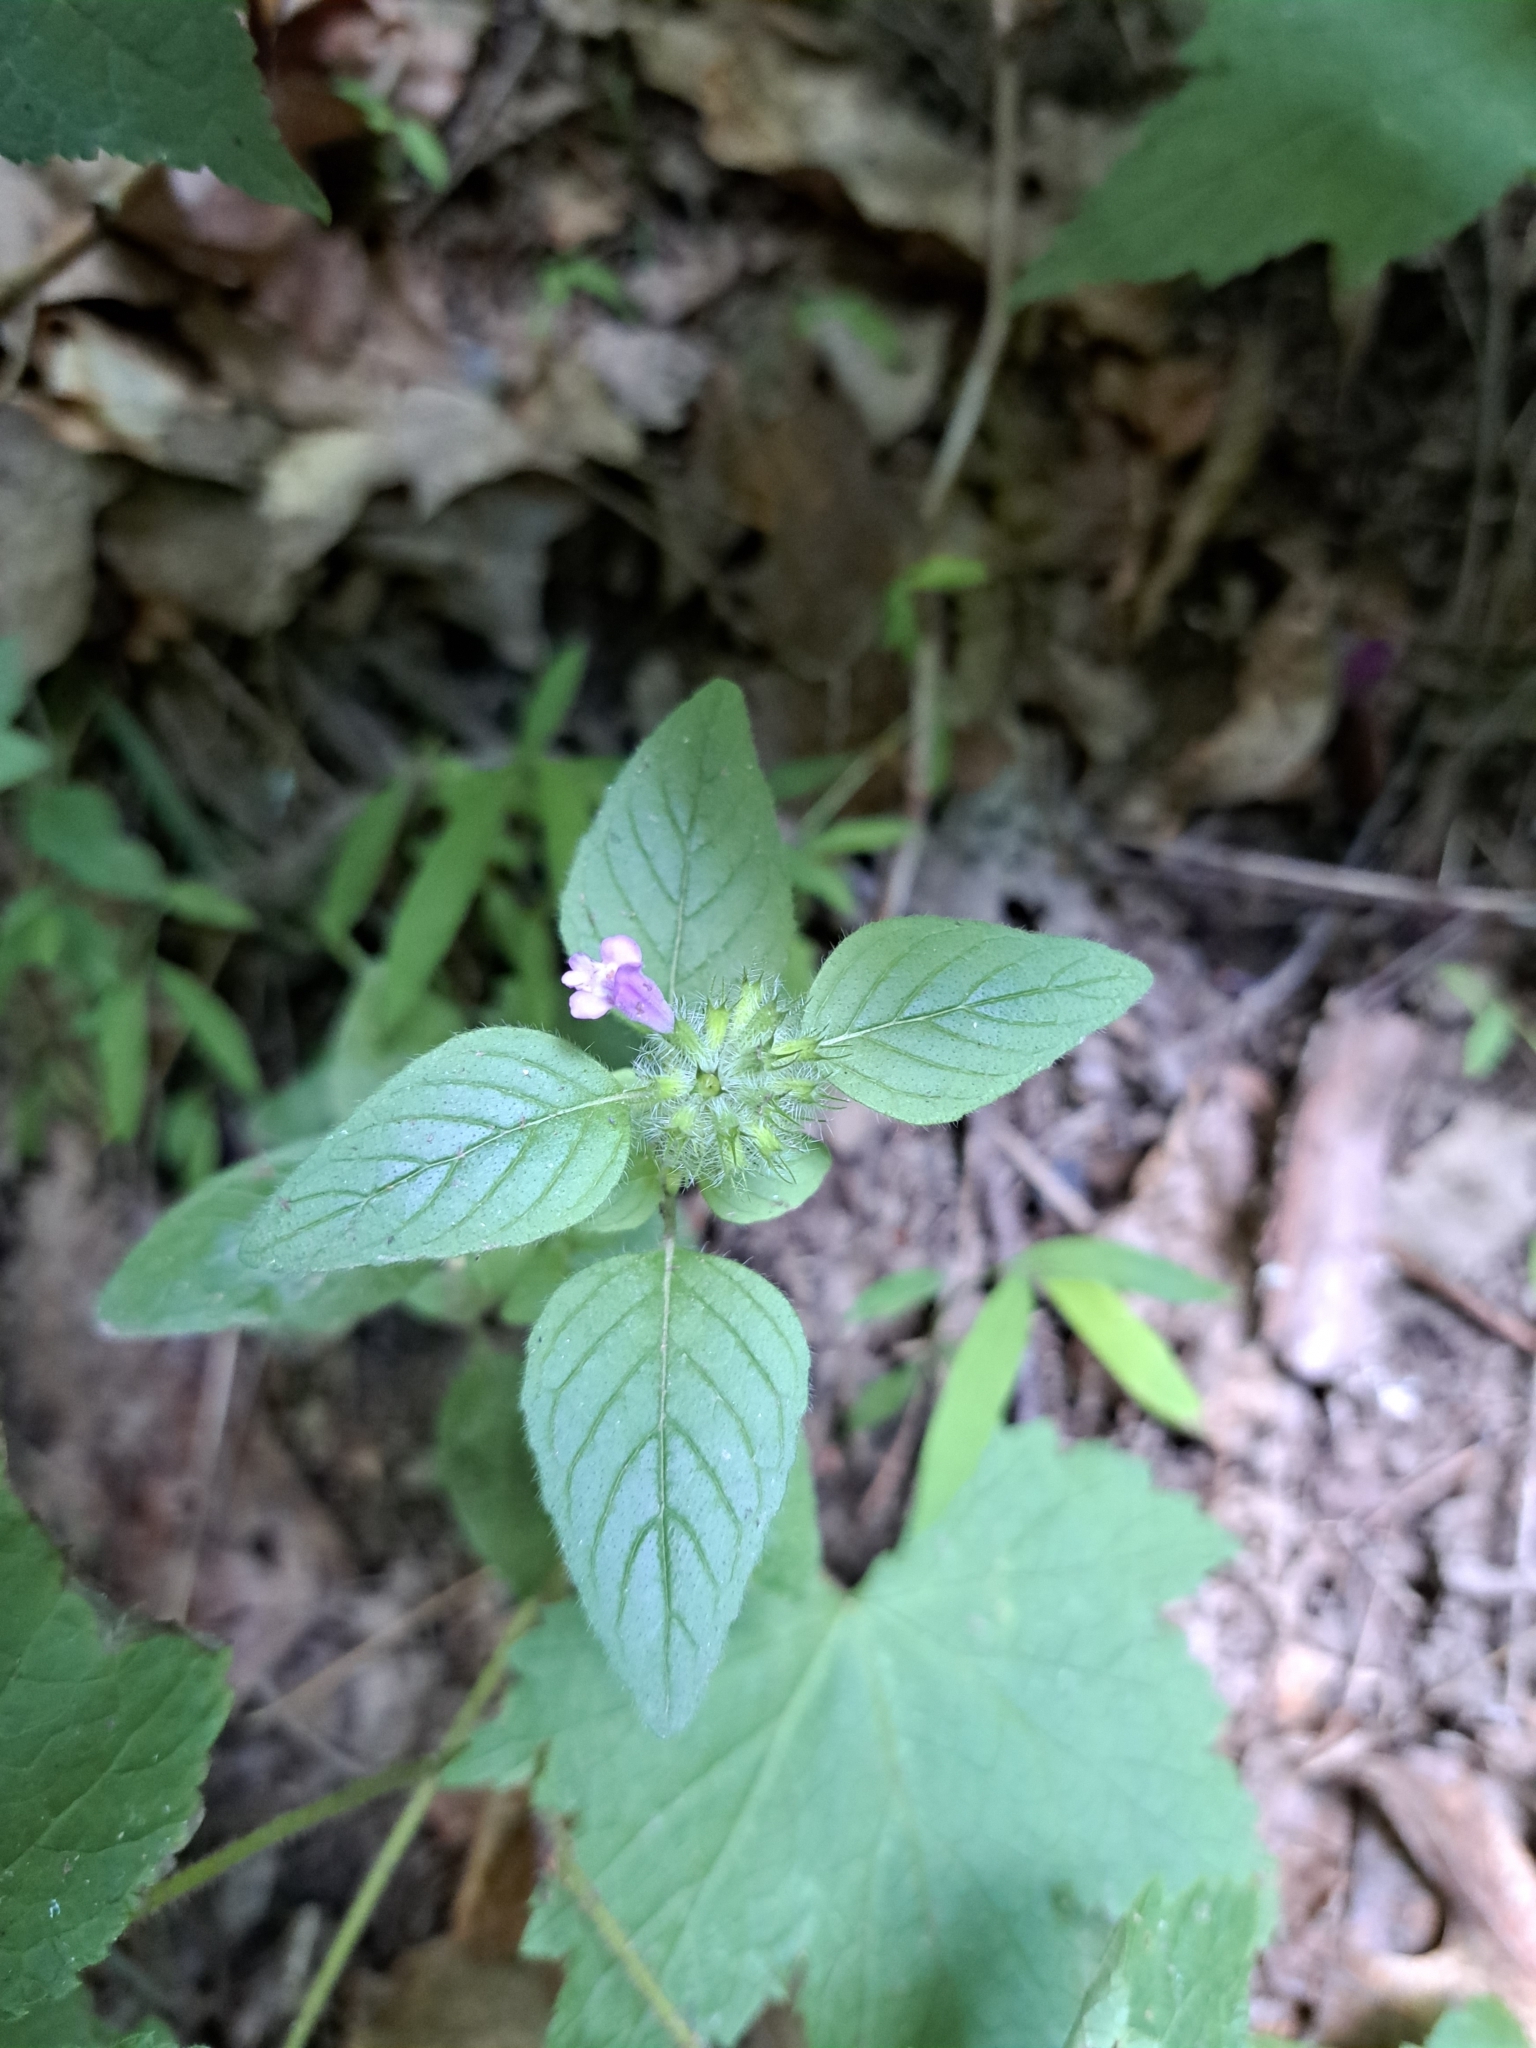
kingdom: Plantae
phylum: Tracheophyta
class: Magnoliopsida
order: Lamiales
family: Lamiaceae
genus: Clinopodium
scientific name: Clinopodium vulgare
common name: Wild basil
